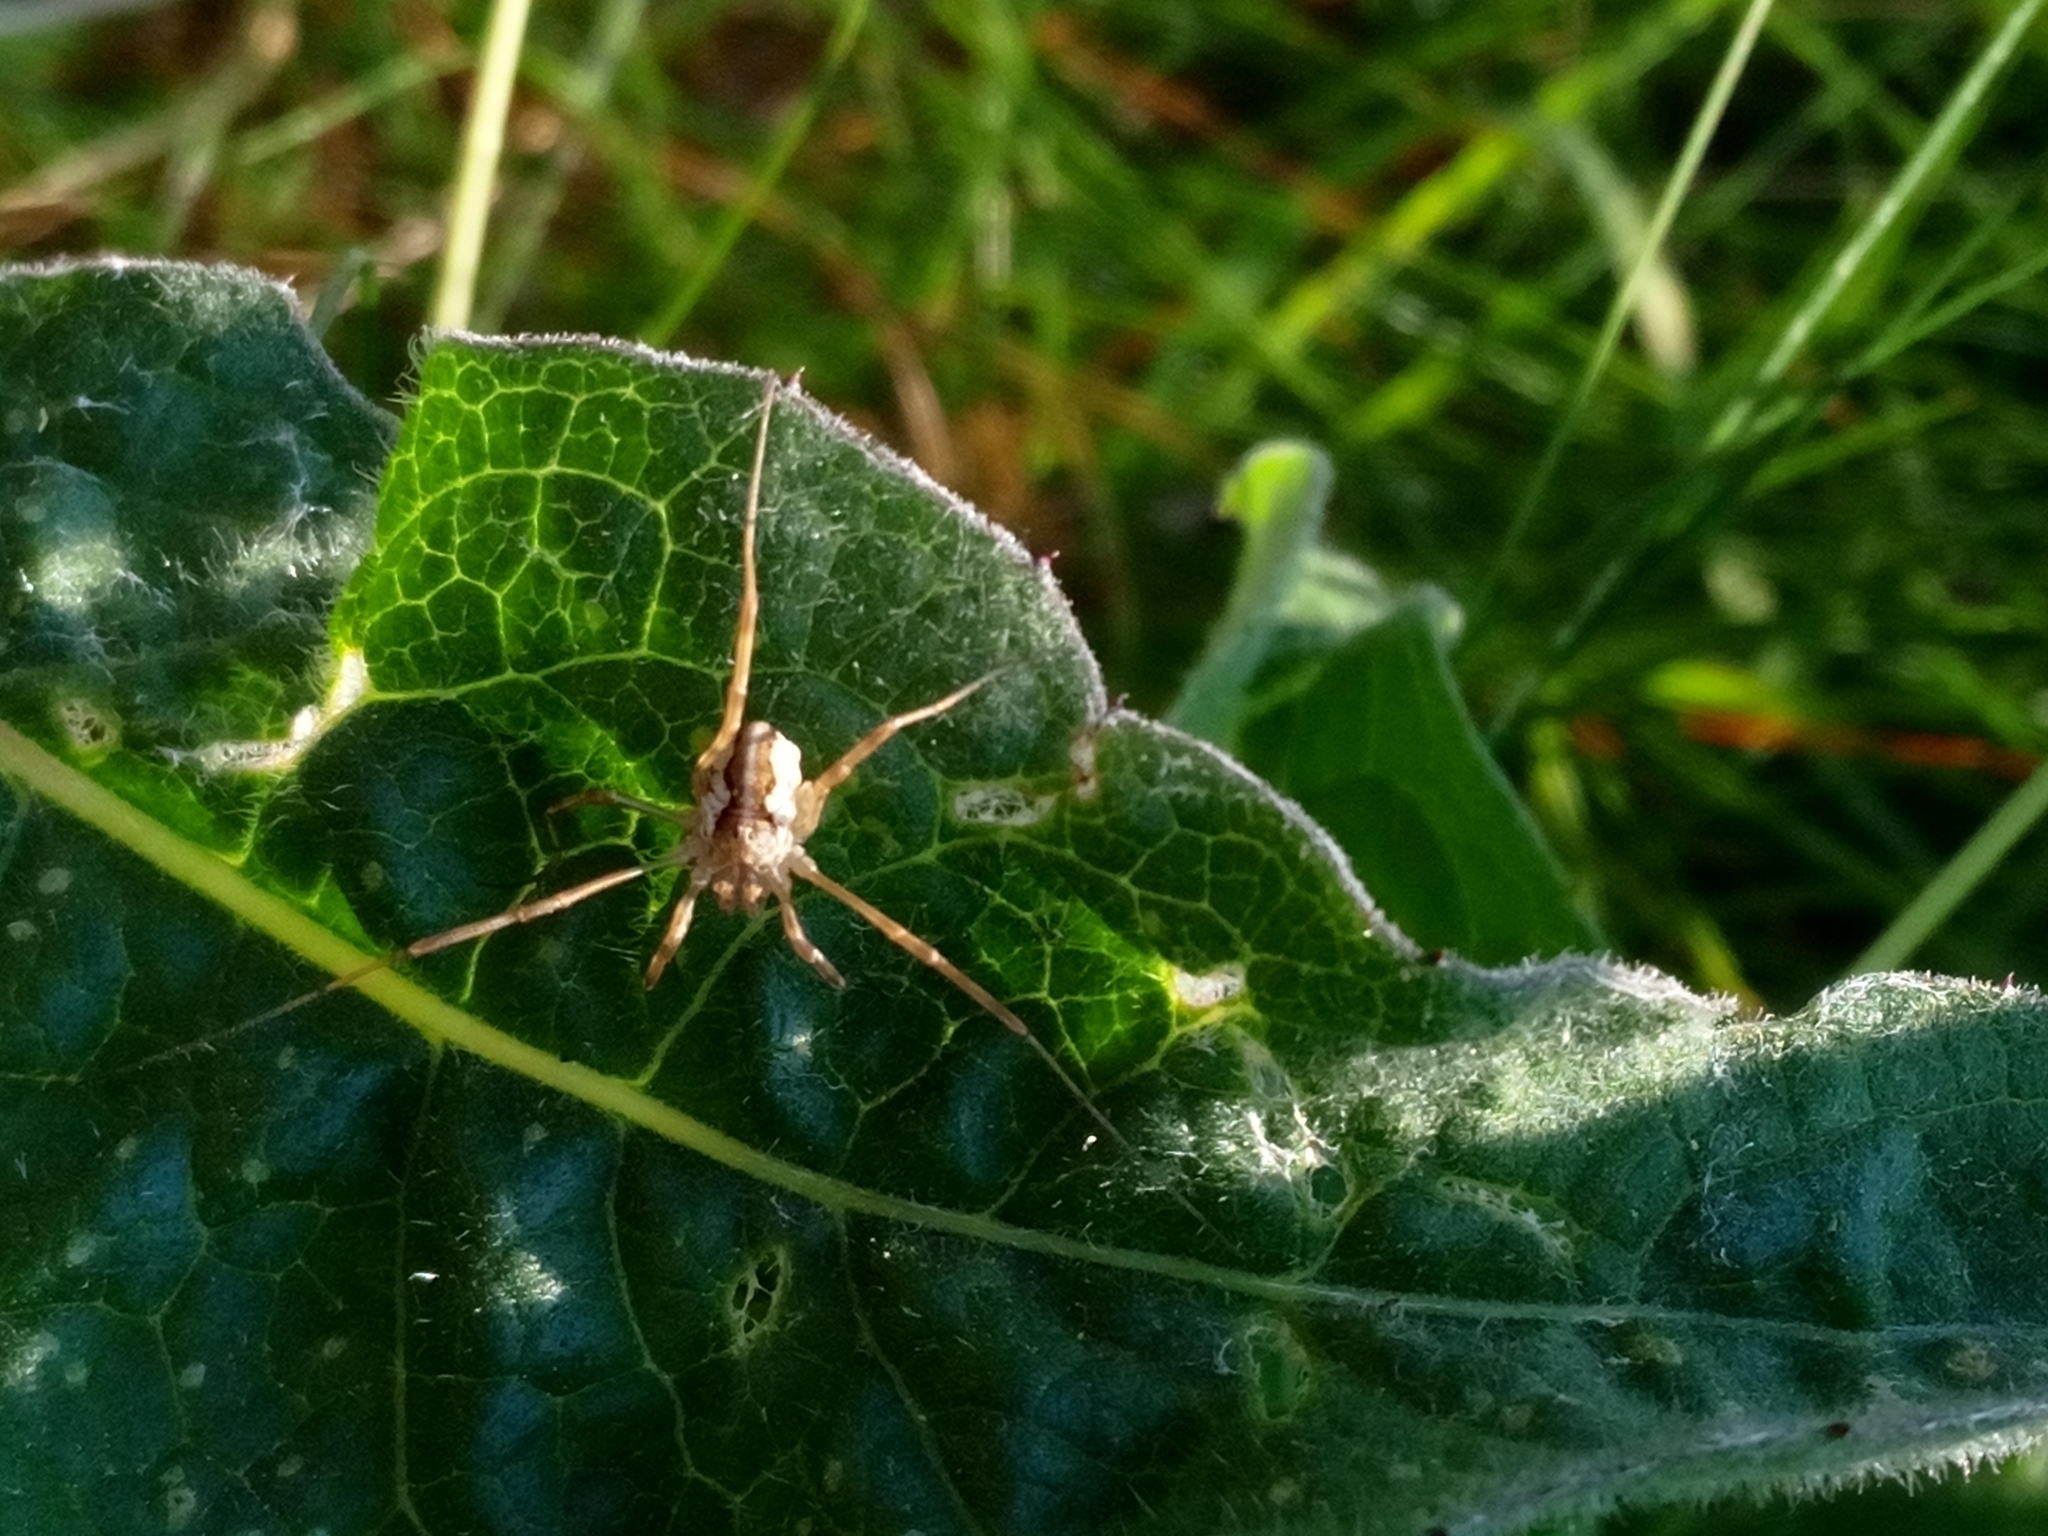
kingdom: Animalia
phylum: Arthropoda
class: Arachnida
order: Opiliones
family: Phalangiidae
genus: Mitopus
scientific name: Mitopus morio
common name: Saddleback harvestman
